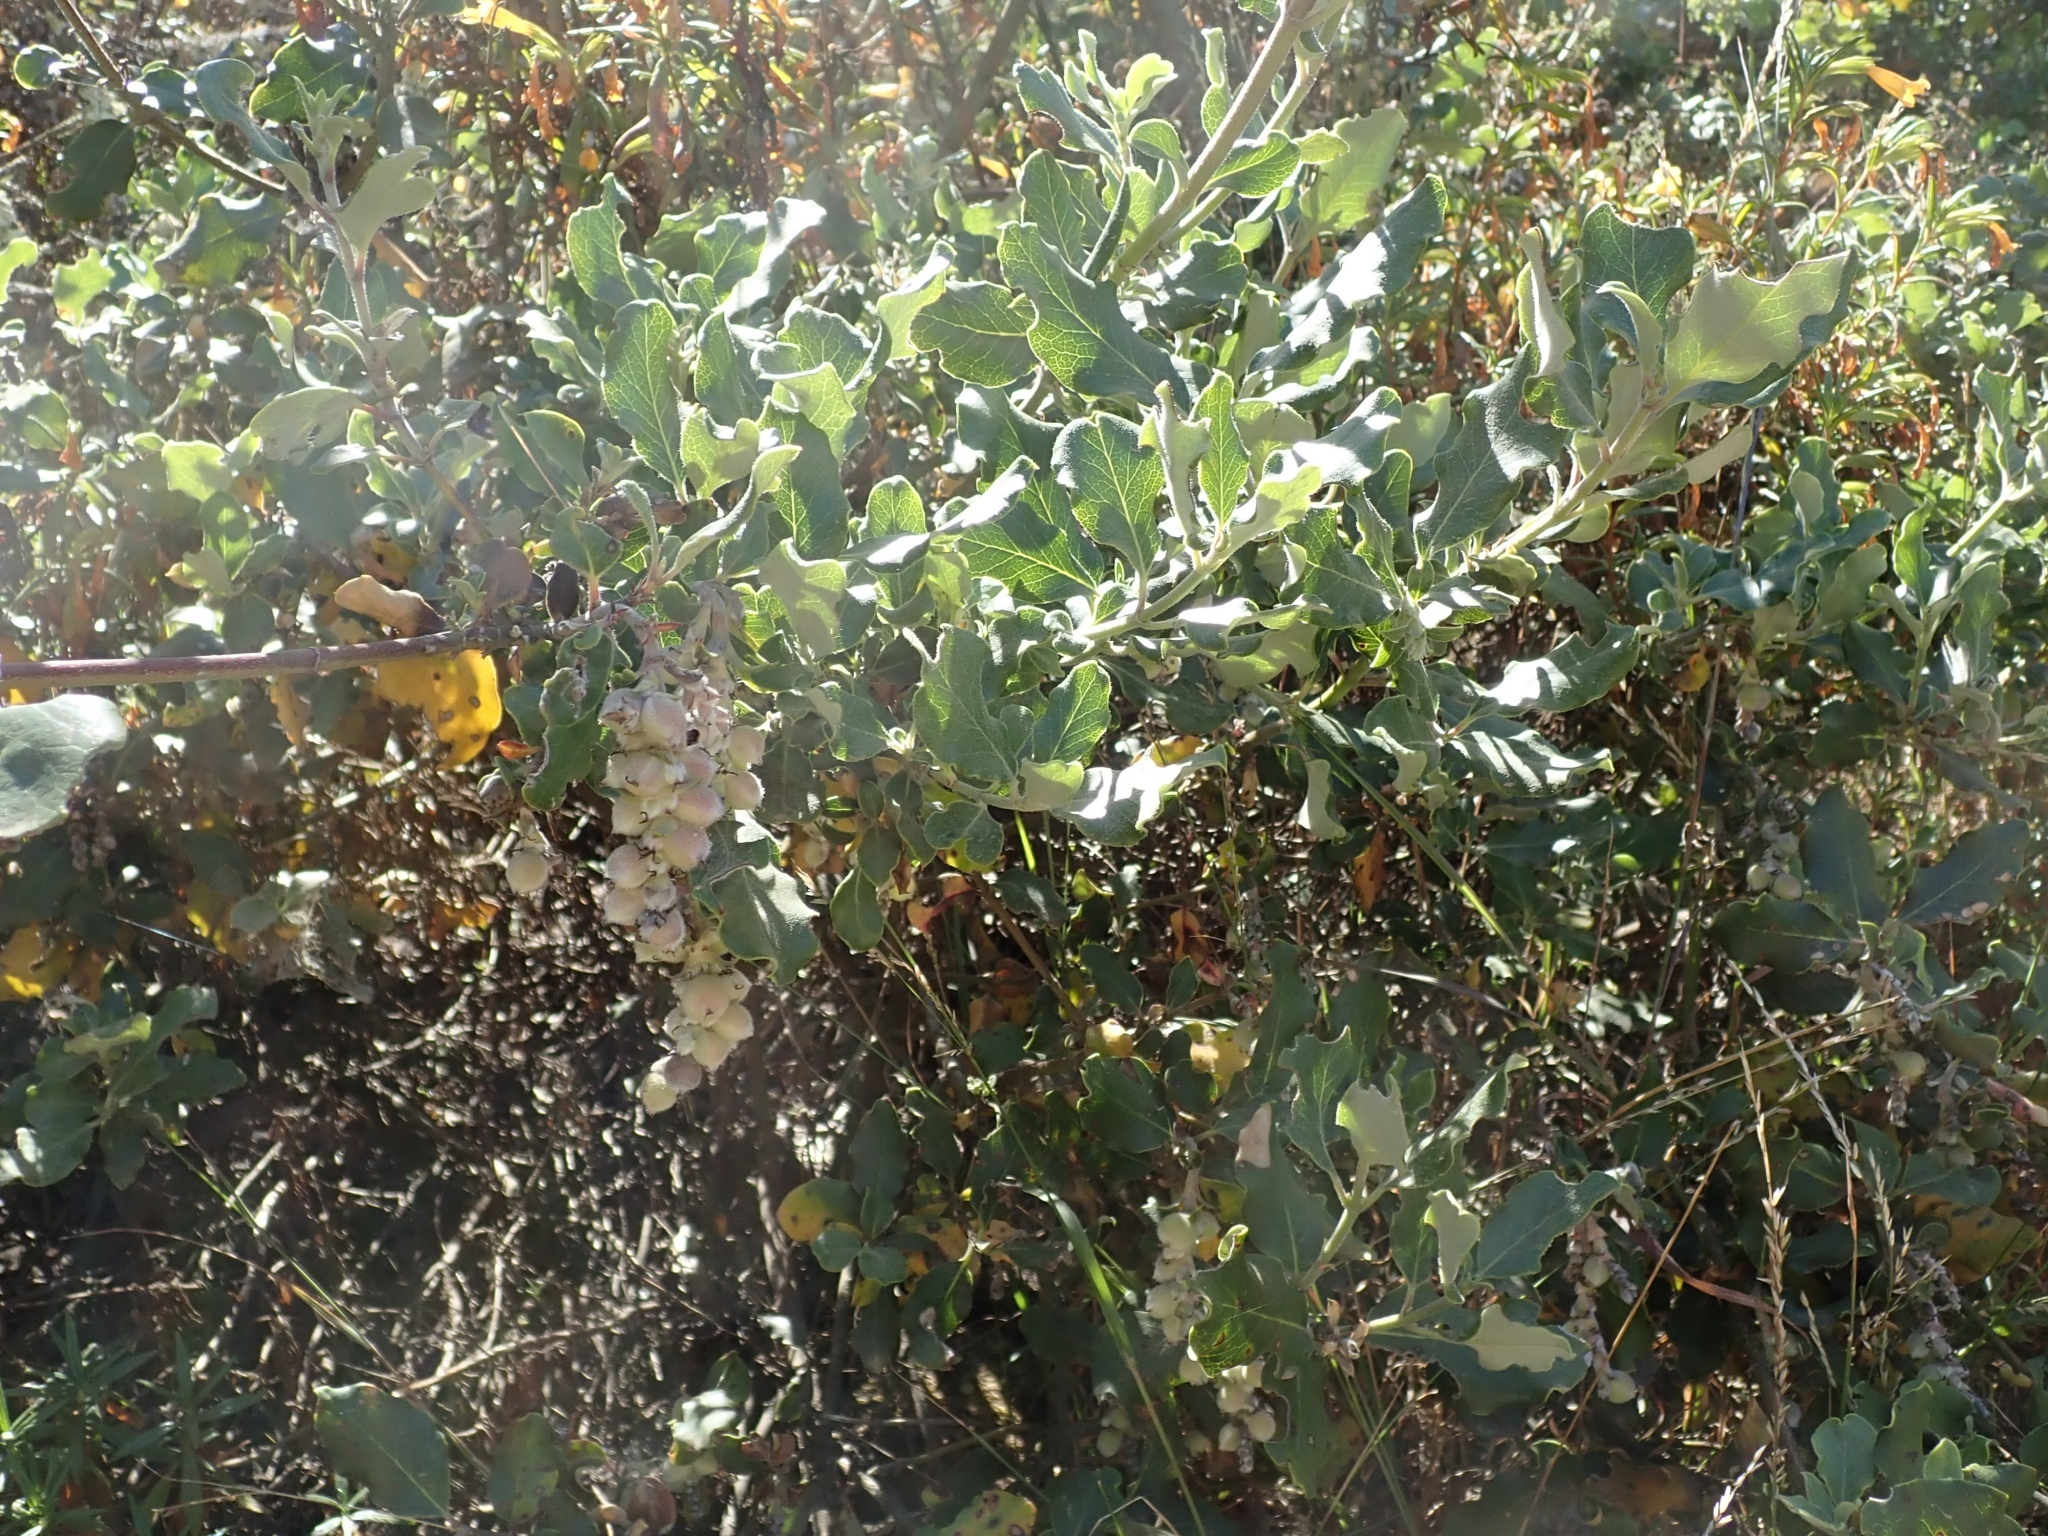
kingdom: Plantae
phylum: Tracheophyta
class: Magnoliopsida
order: Garryales
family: Garryaceae
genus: Garrya
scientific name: Garrya elliptica
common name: Silk-tassel
